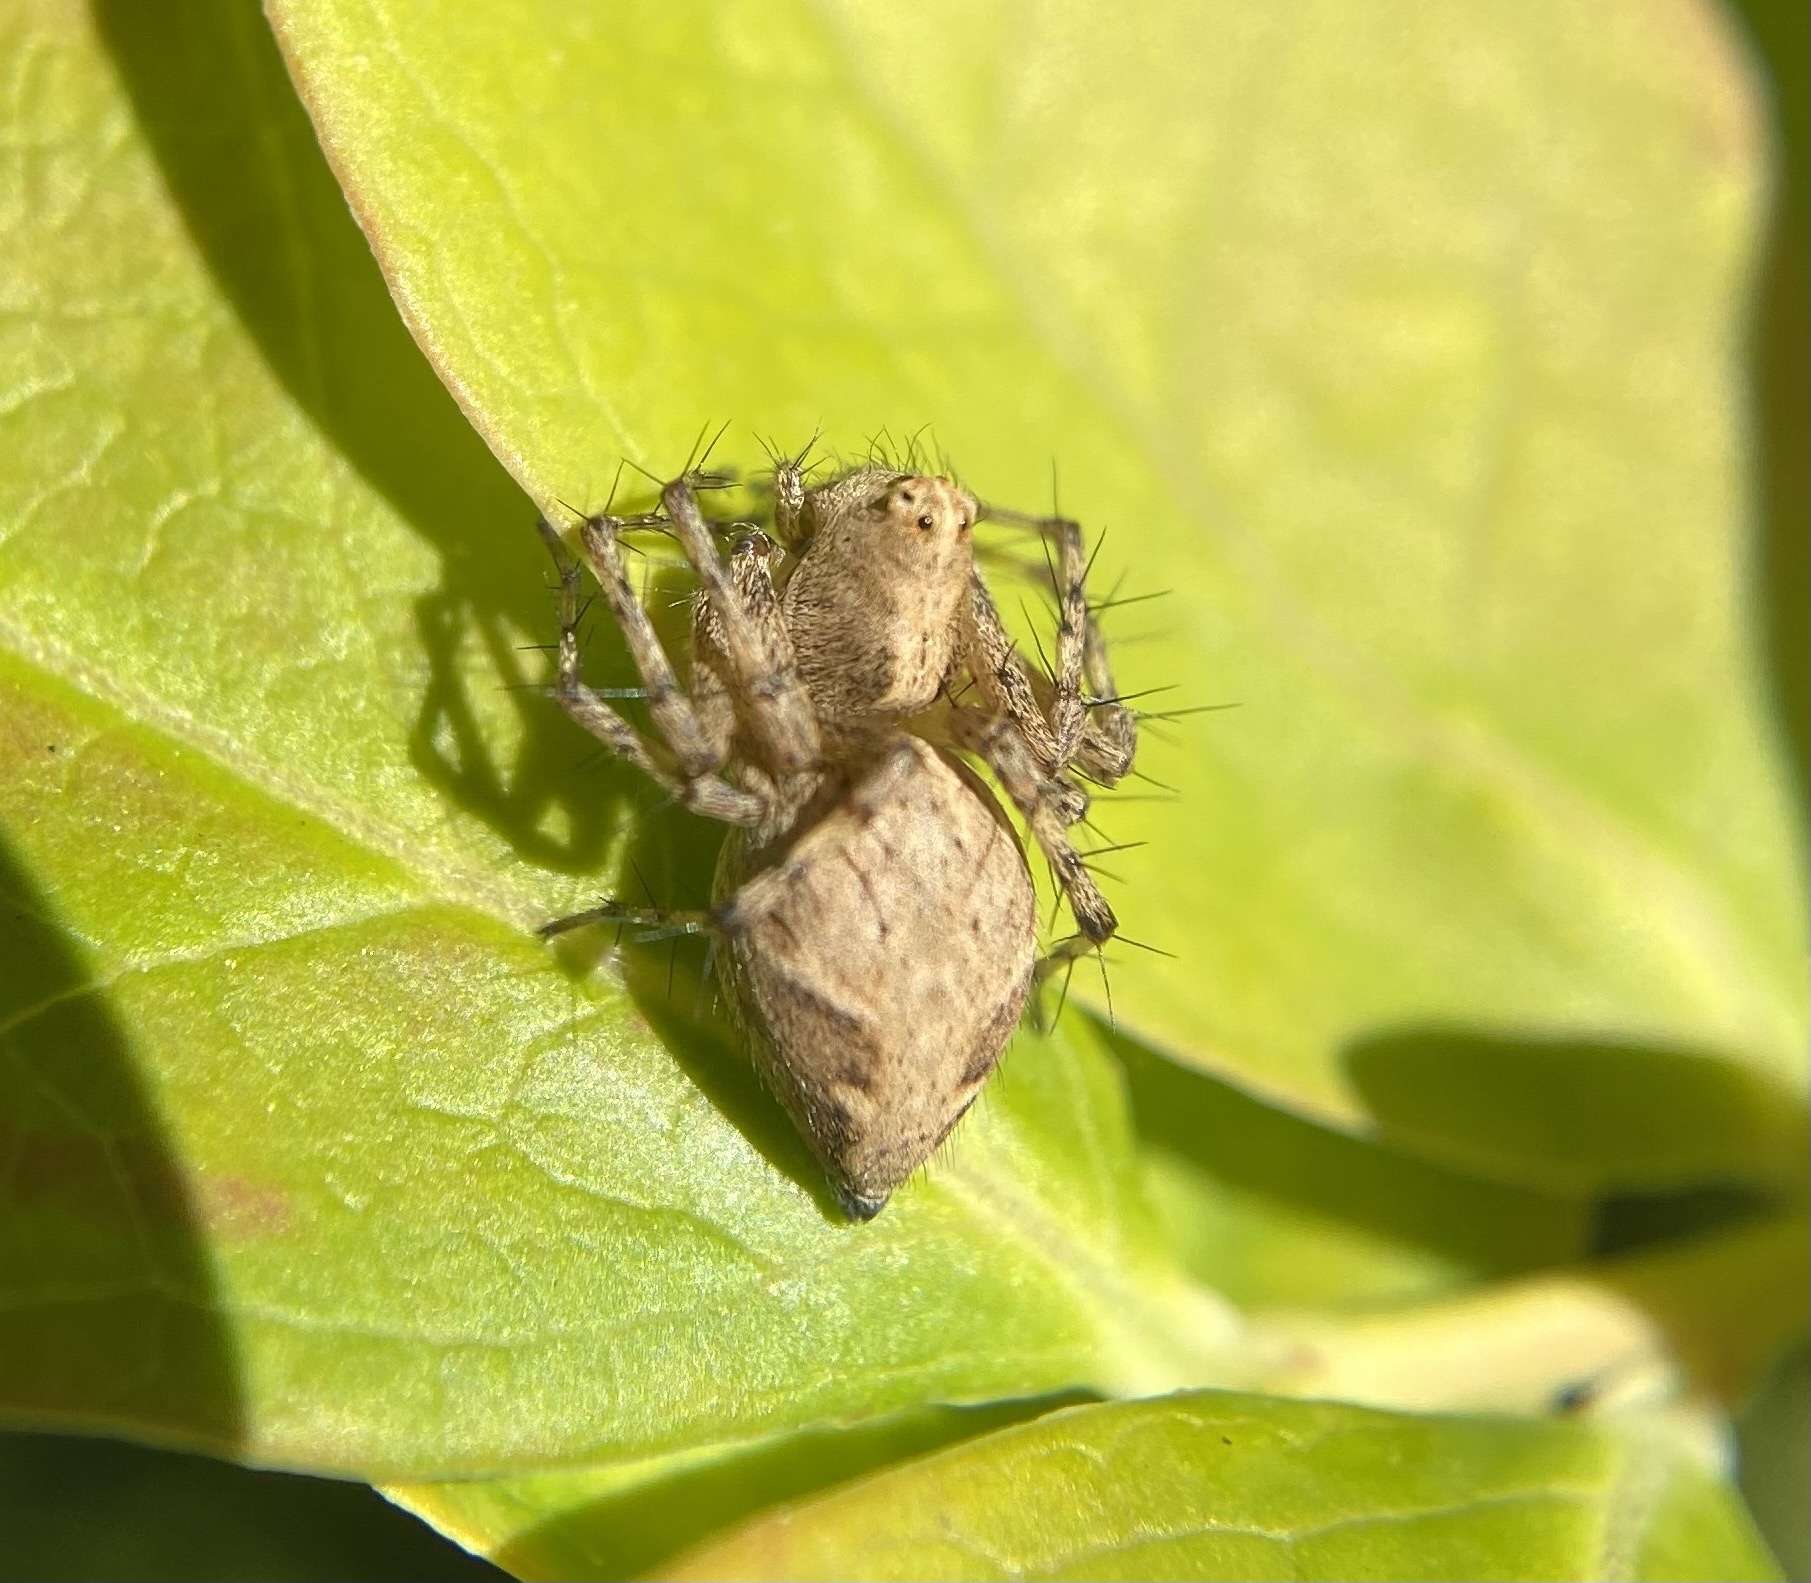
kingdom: Animalia
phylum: Arthropoda
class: Arachnida
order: Araneae
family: Oxyopidae
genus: Oxyopes
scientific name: Oxyopes scalaris
